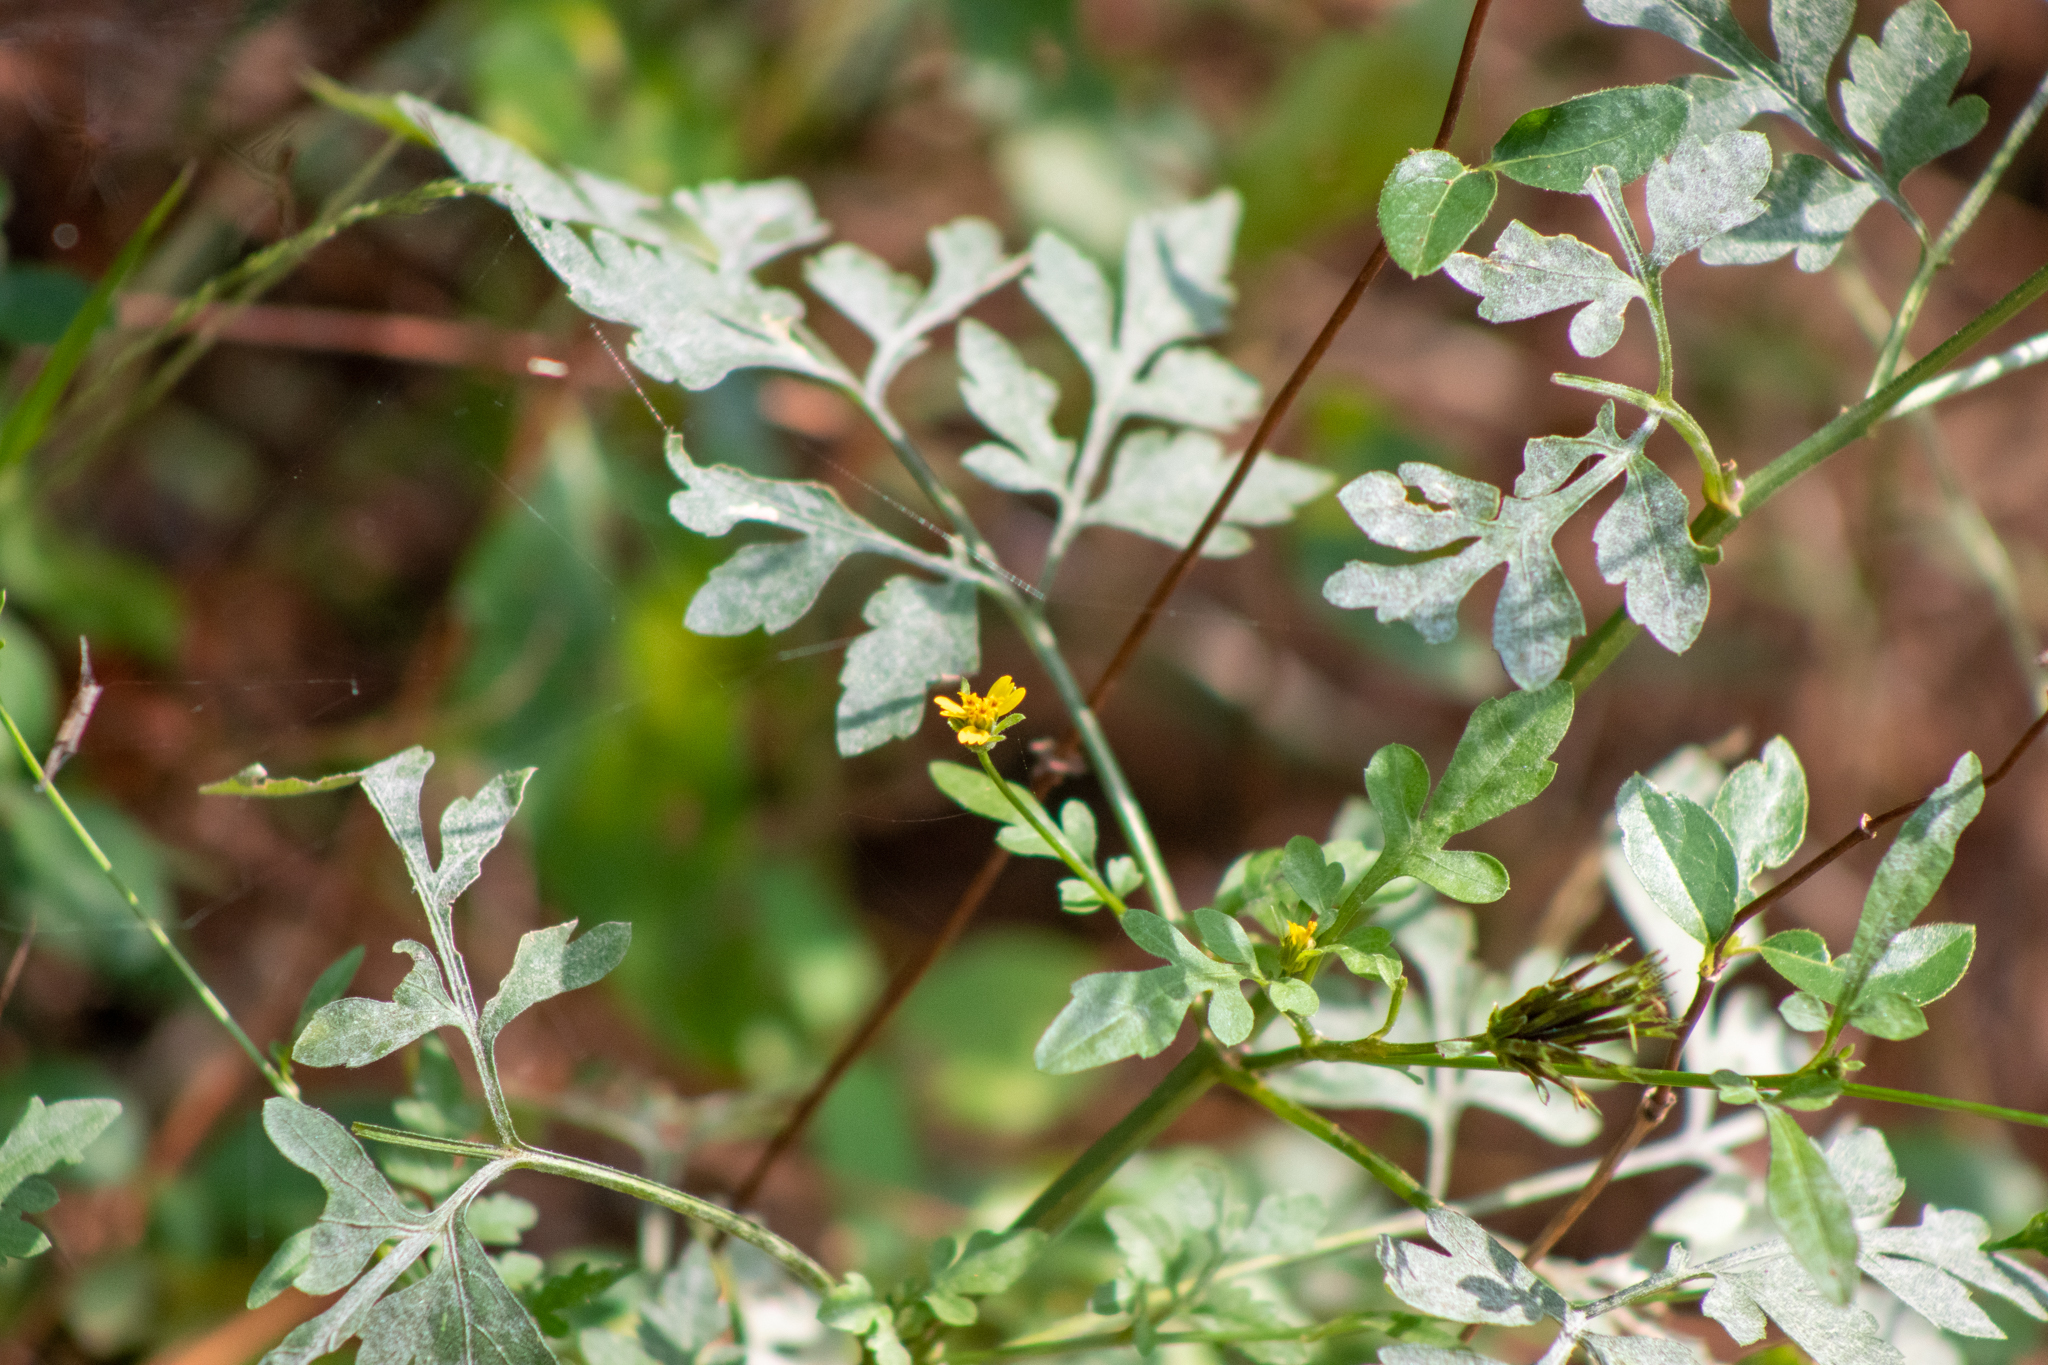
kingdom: Plantae
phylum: Tracheophyta
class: Magnoliopsida
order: Asterales
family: Asteraceae
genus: Bidens
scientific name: Bidens bipinnata
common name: Spanish-needles
